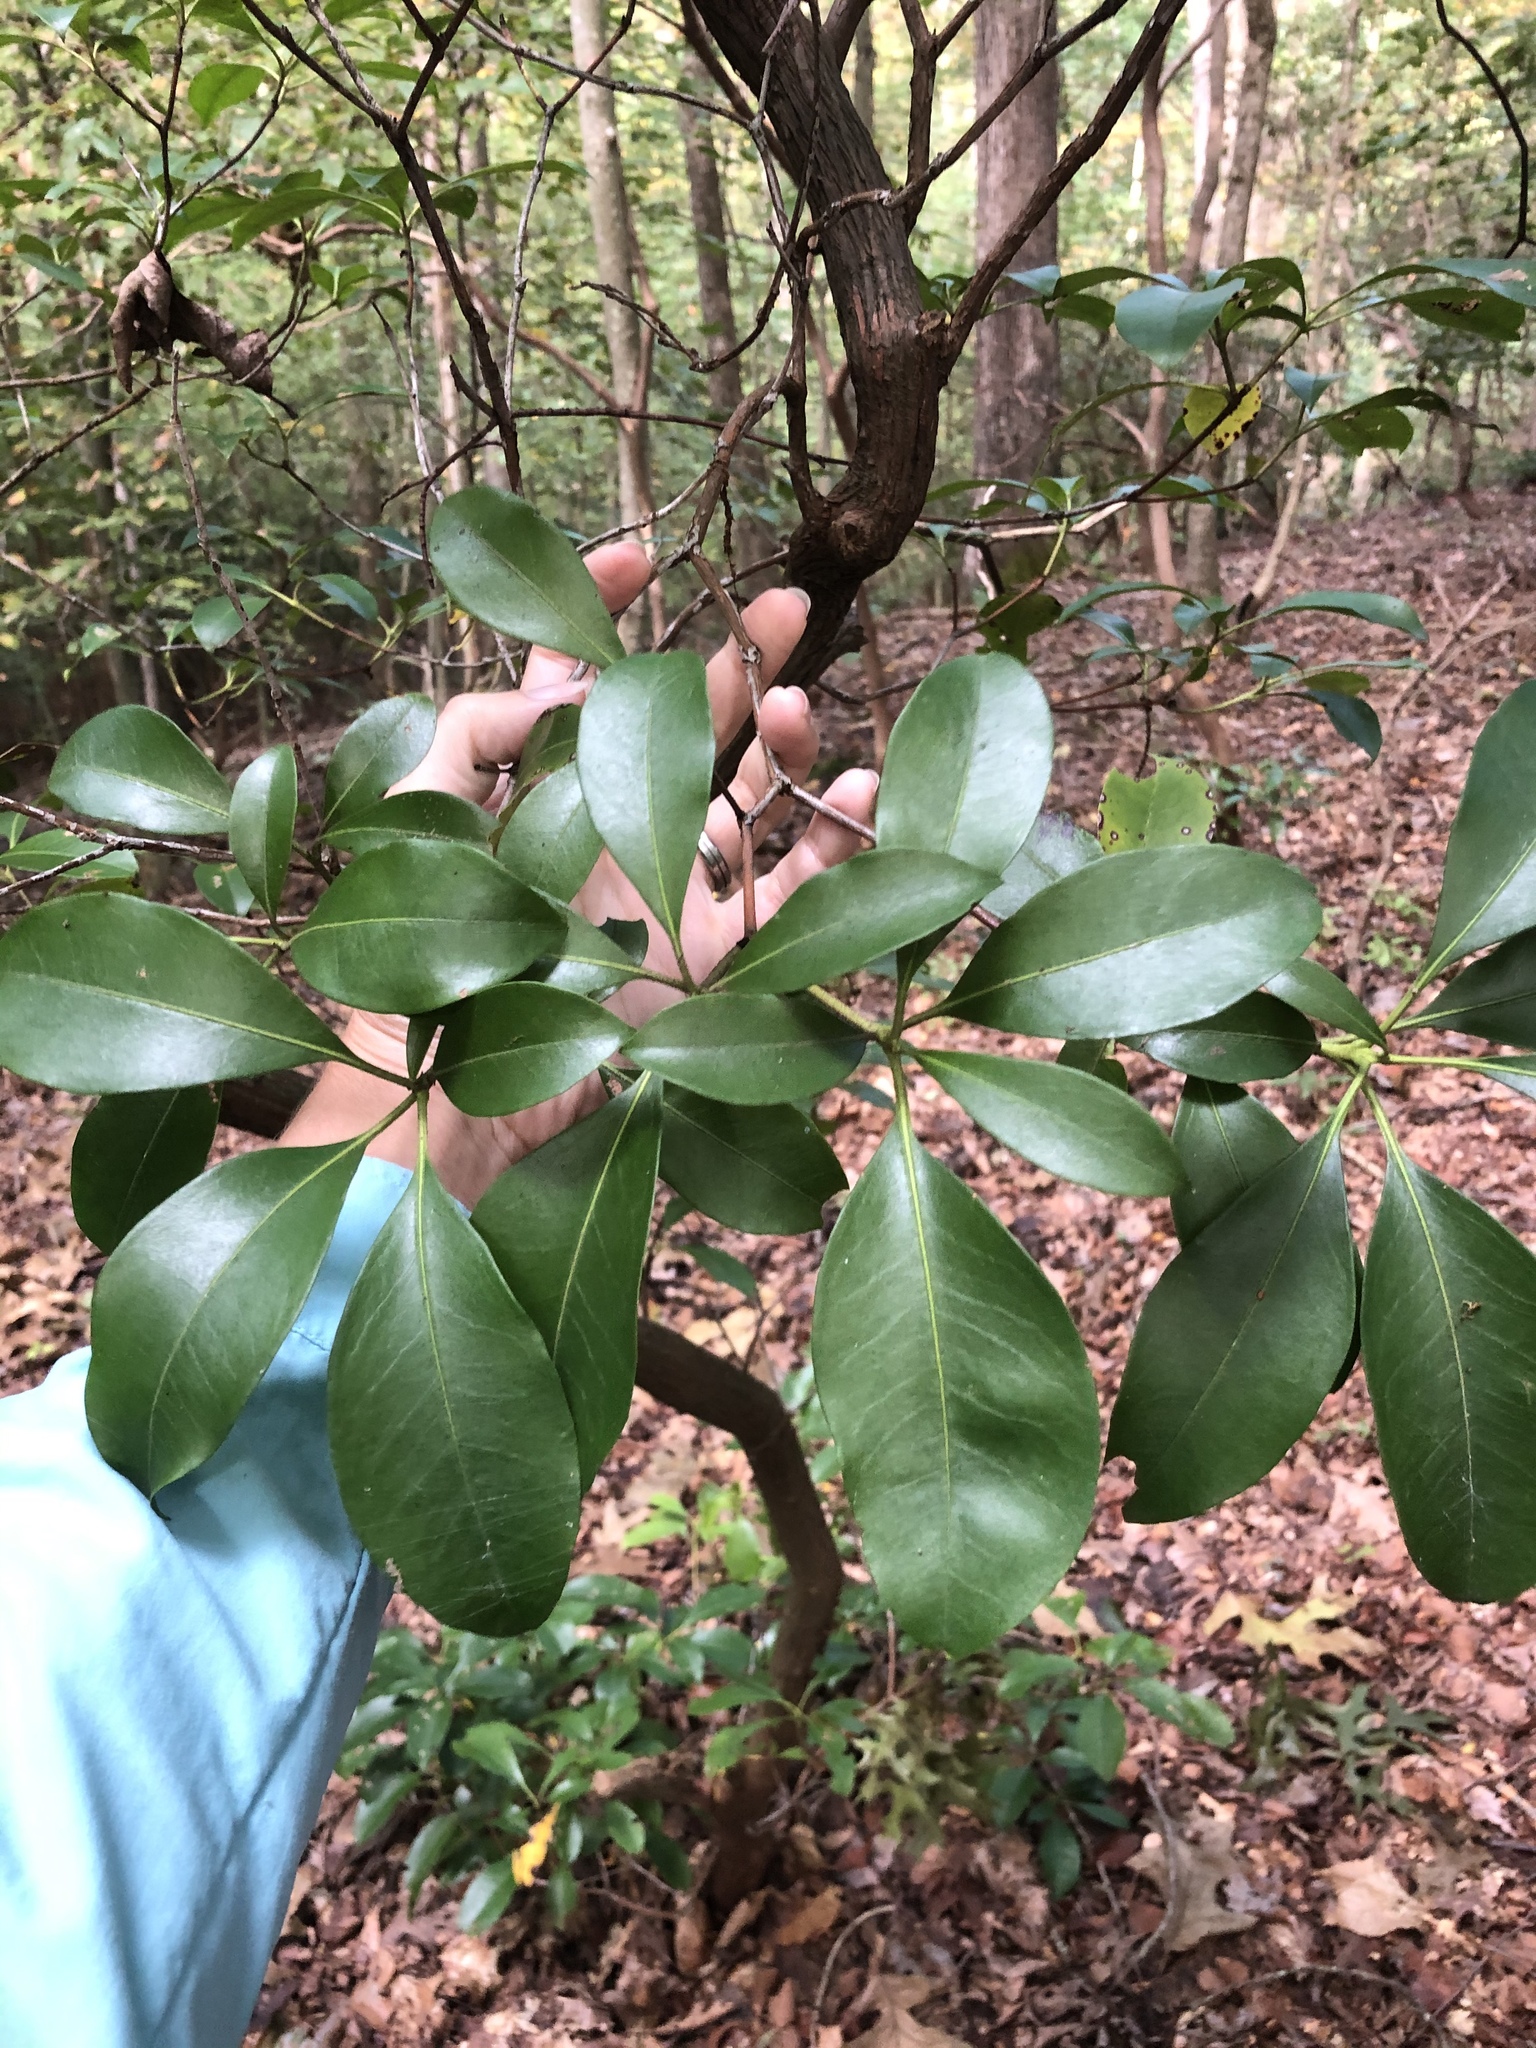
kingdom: Plantae
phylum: Tracheophyta
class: Magnoliopsida
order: Ericales
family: Ericaceae
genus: Kalmia
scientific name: Kalmia latifolia
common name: Mountain-laurel
